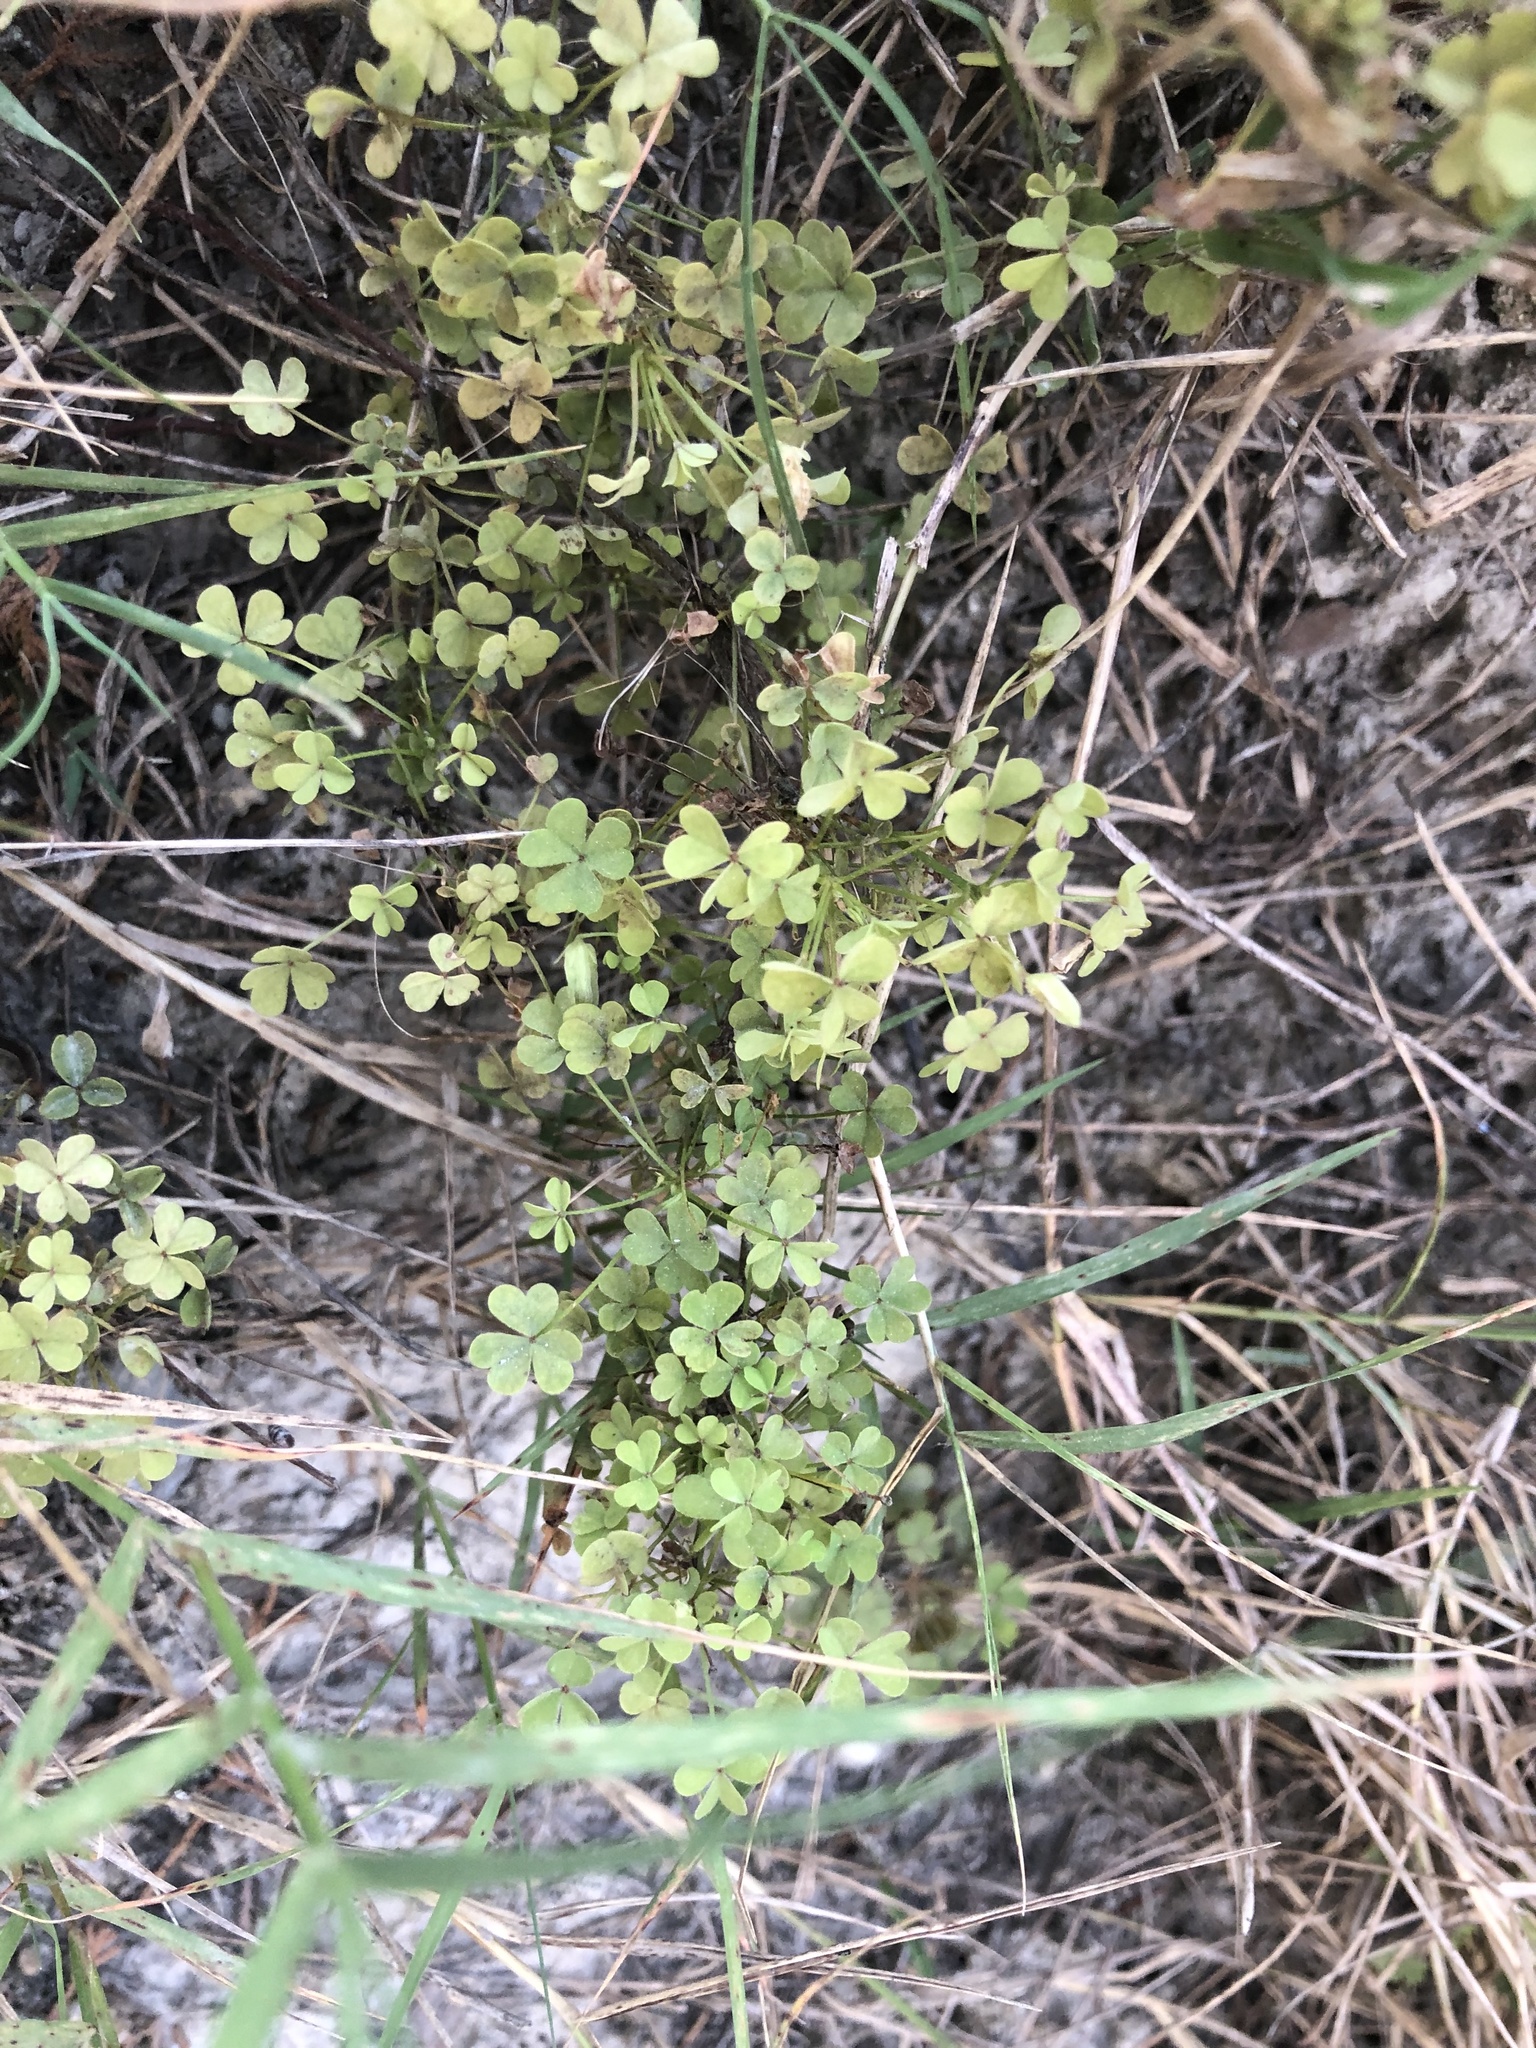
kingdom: Plantae
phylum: Tracheophyta
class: Magnoliopsida
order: Oxalidales
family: Oxalidaceae
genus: Oxalis
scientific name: Oxalis macrantha
